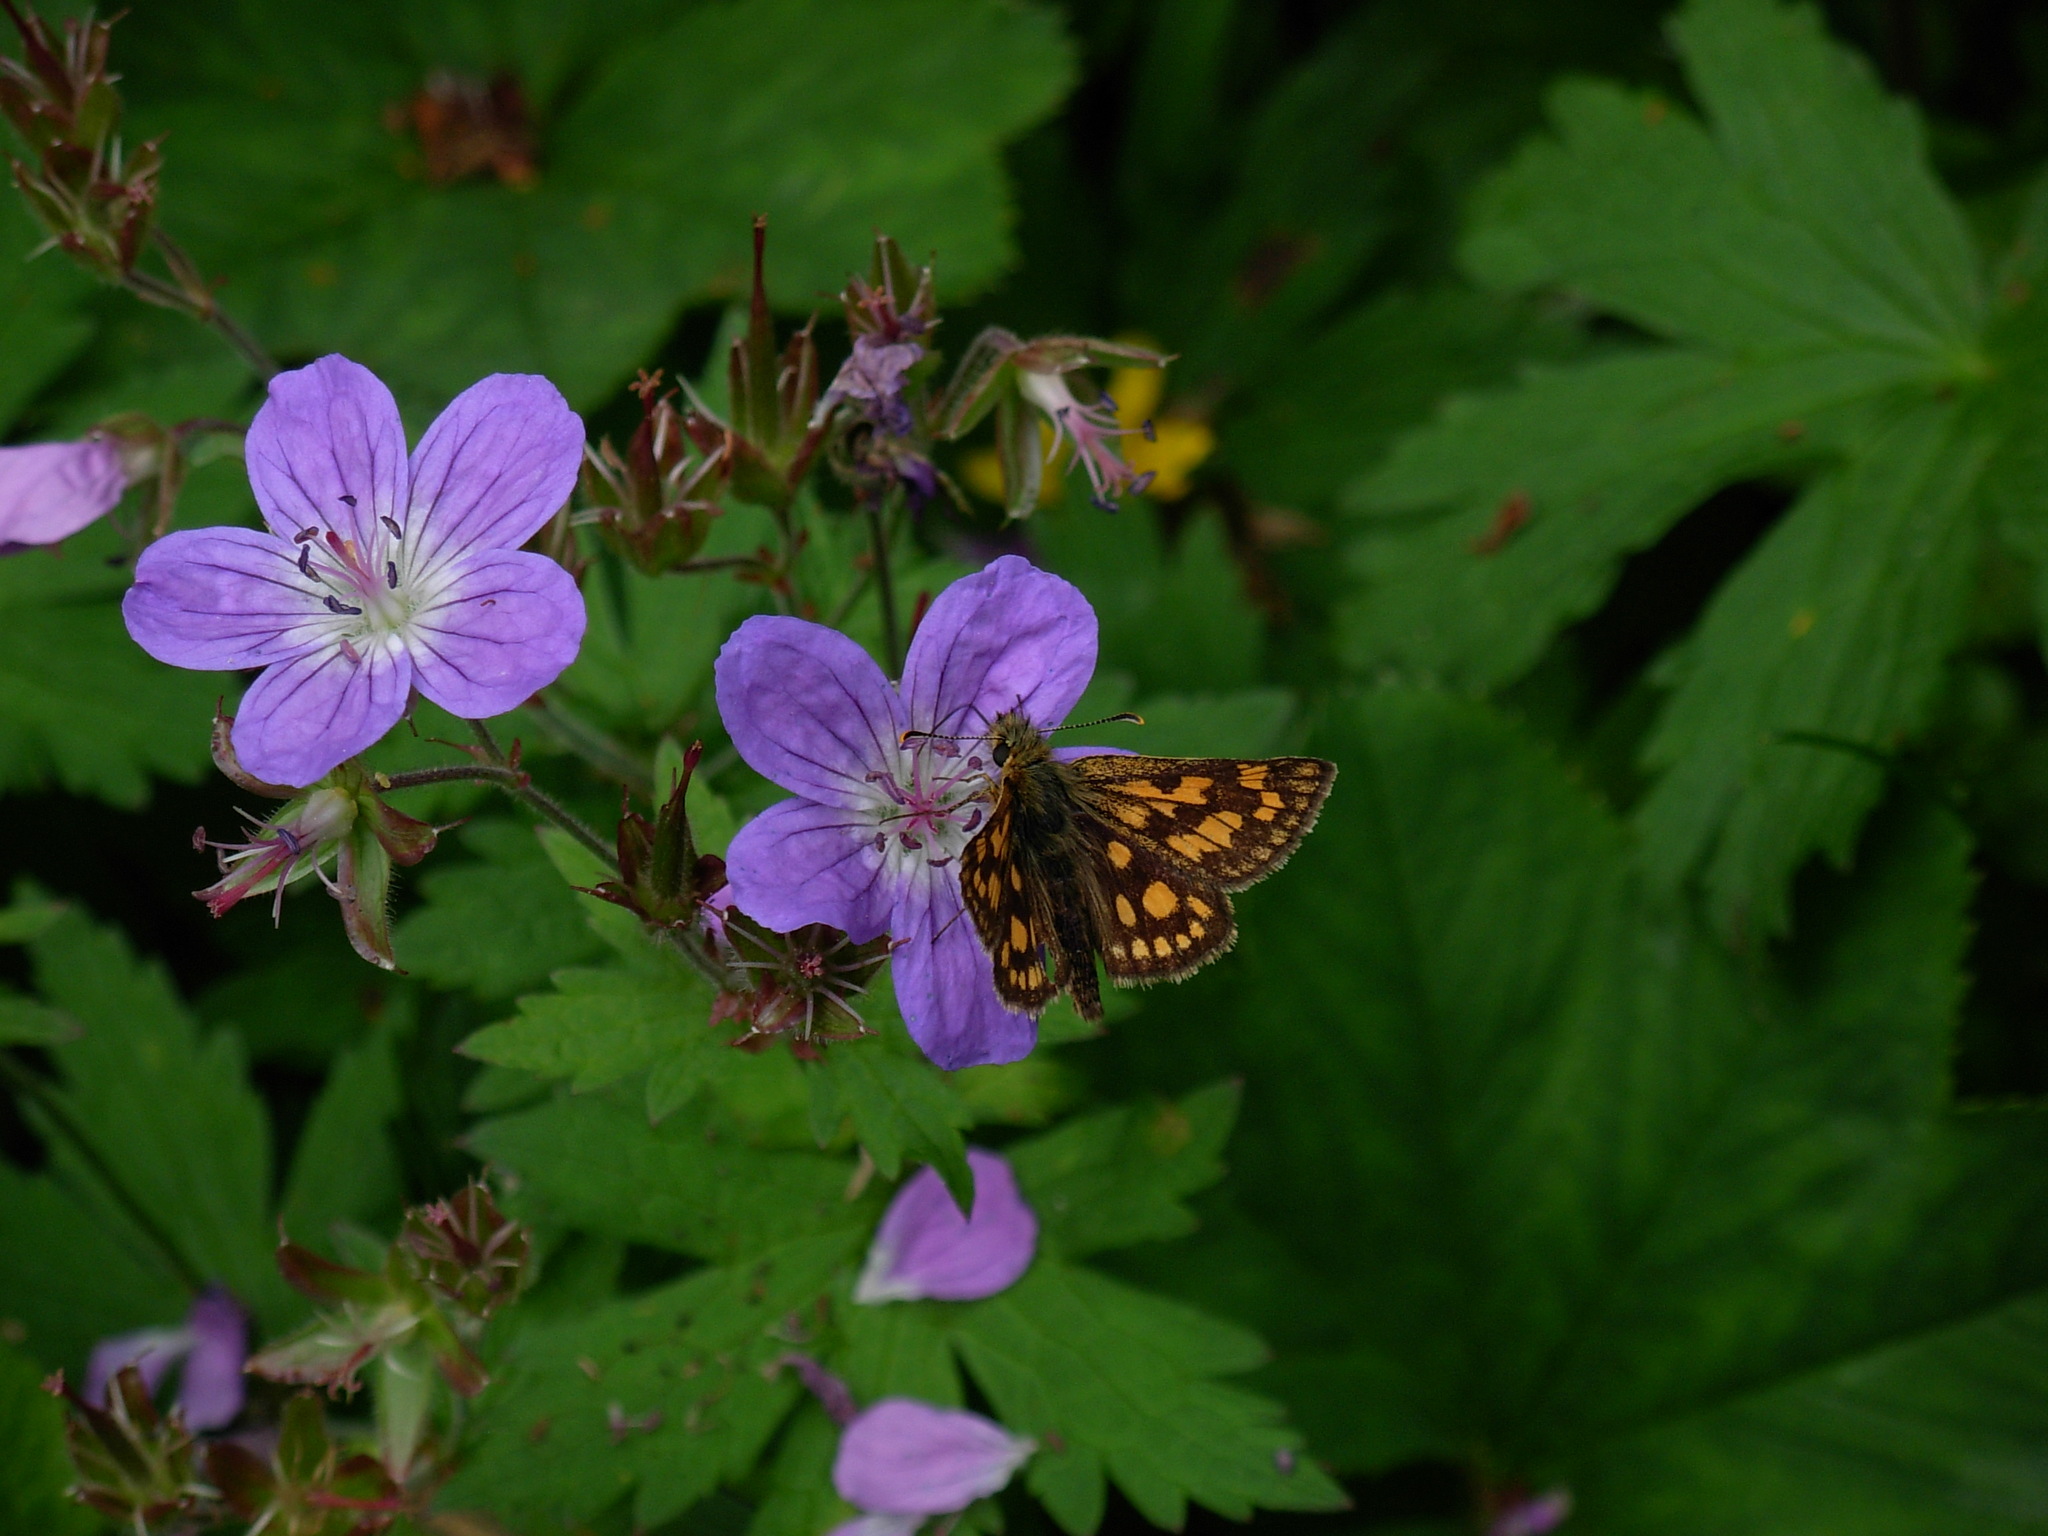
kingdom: Animalia
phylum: Arthropoda
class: Insecta
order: Lepidoptera
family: Hesperiidae
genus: Carterocephalus
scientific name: Carterocephalus palaemon
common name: Chequered skipper
